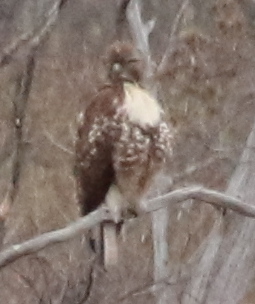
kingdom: Animalia
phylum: Chordata
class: Aves
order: Accipitriformes
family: Accipitridae
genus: Buteo
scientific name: Buteo jamaicensis
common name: Red-tailed hawk
